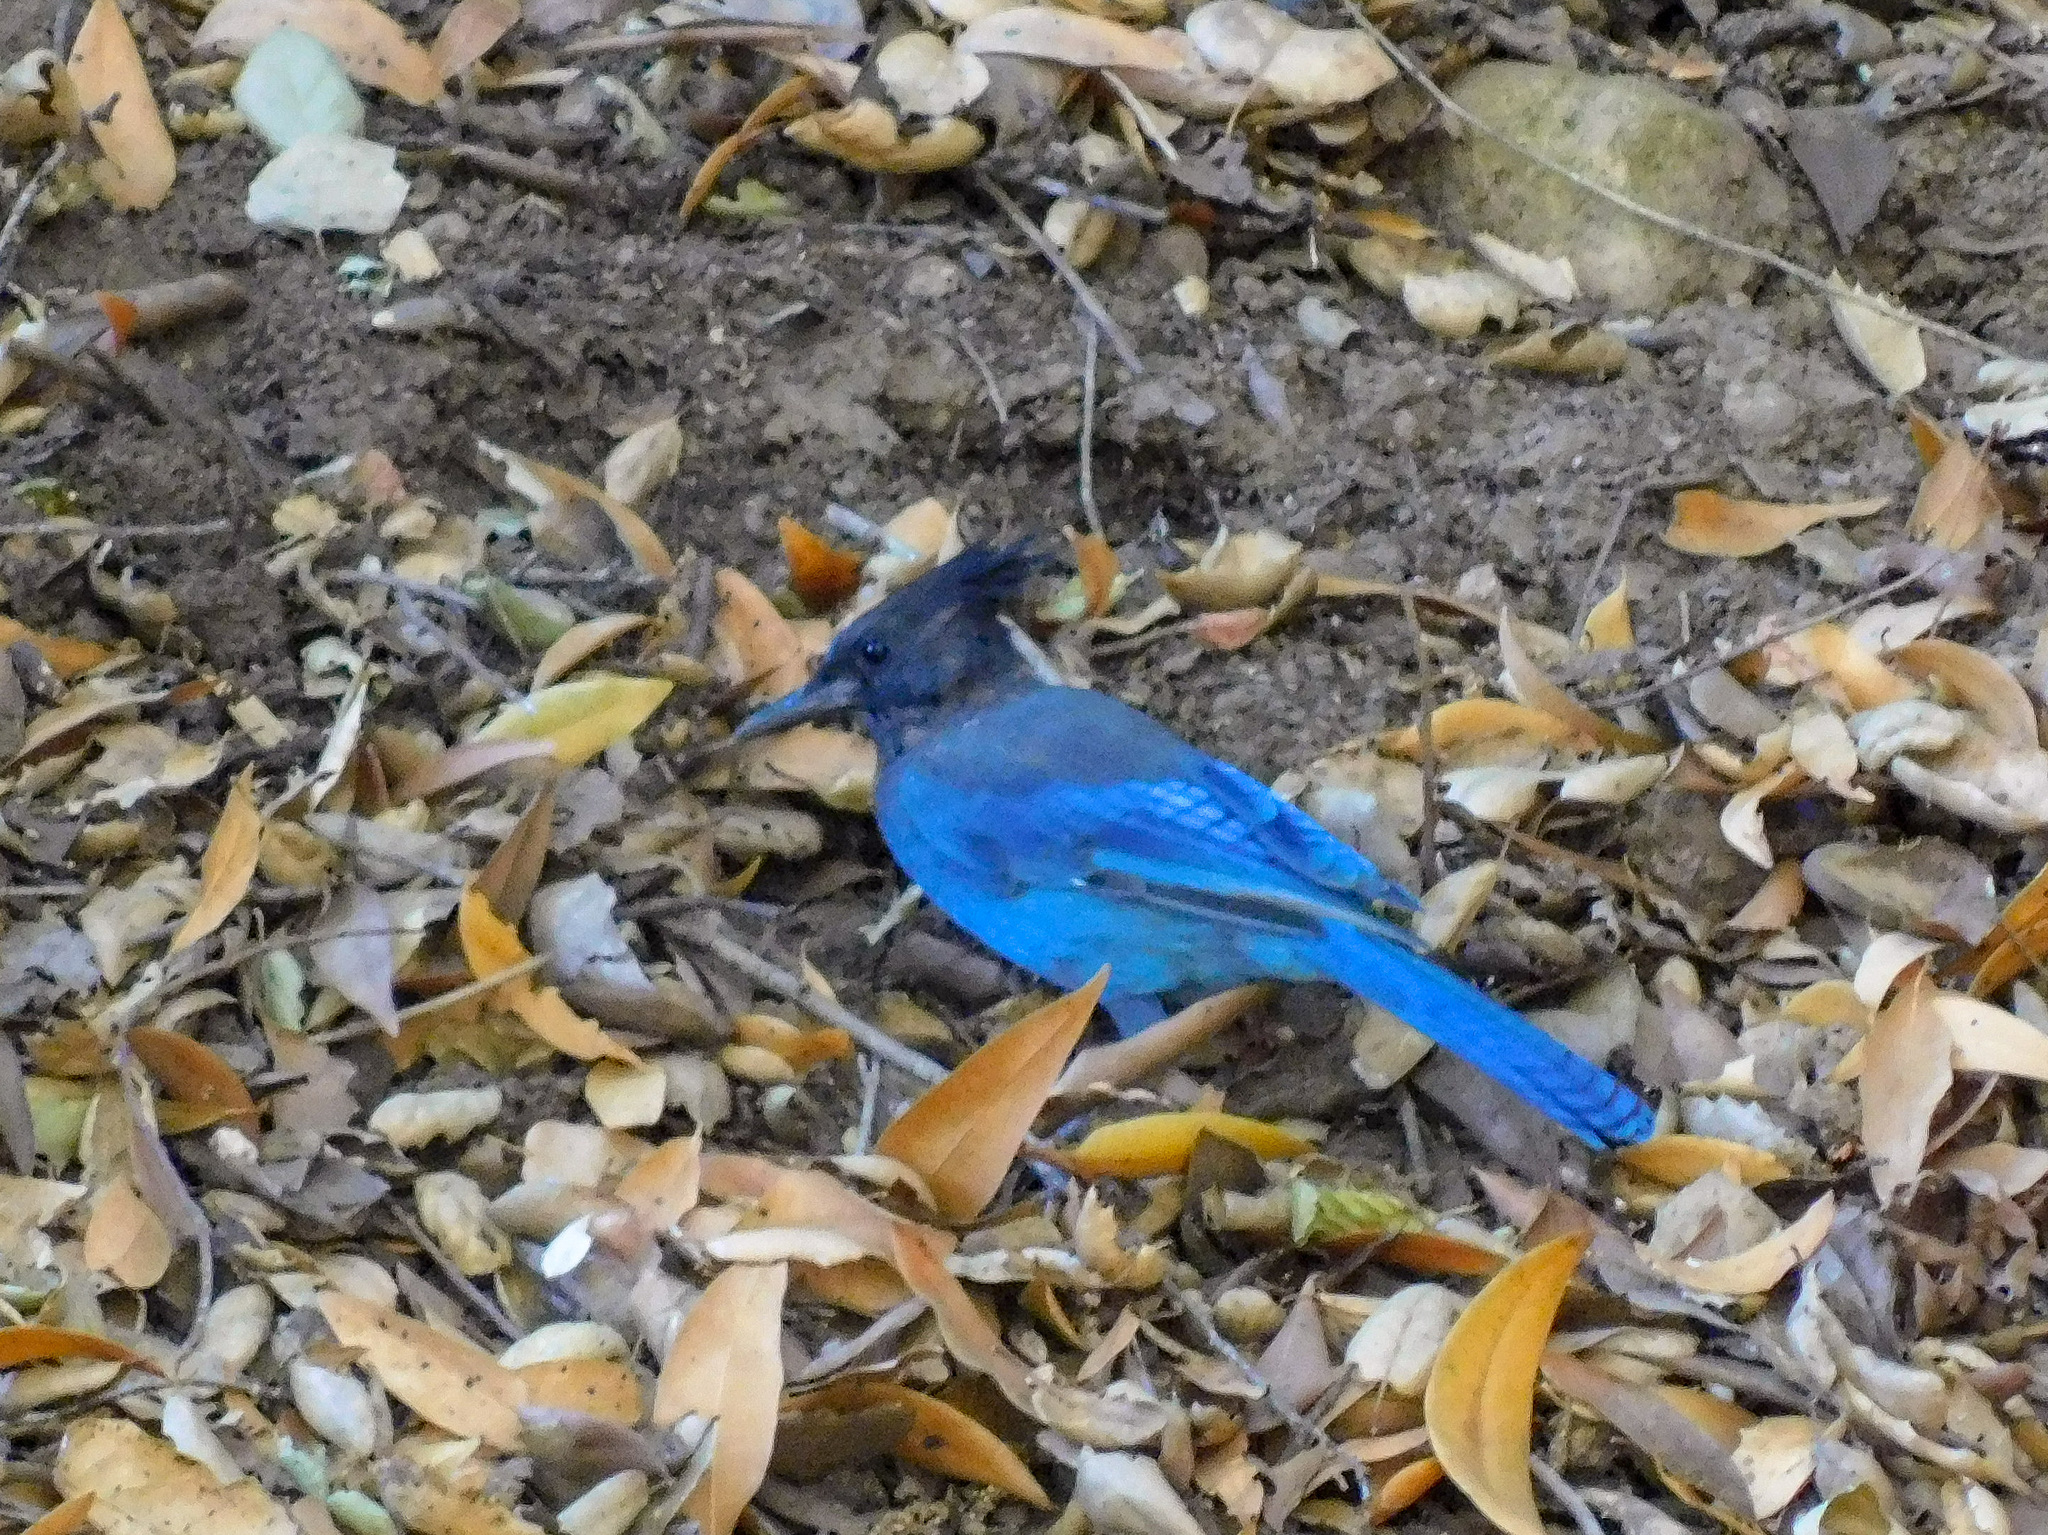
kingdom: Animalia
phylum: Chordata
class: Aves
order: Passeriformes
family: Corvidae
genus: Cyanocitta
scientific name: Cyanocitta stelleri
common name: Steller's jay
